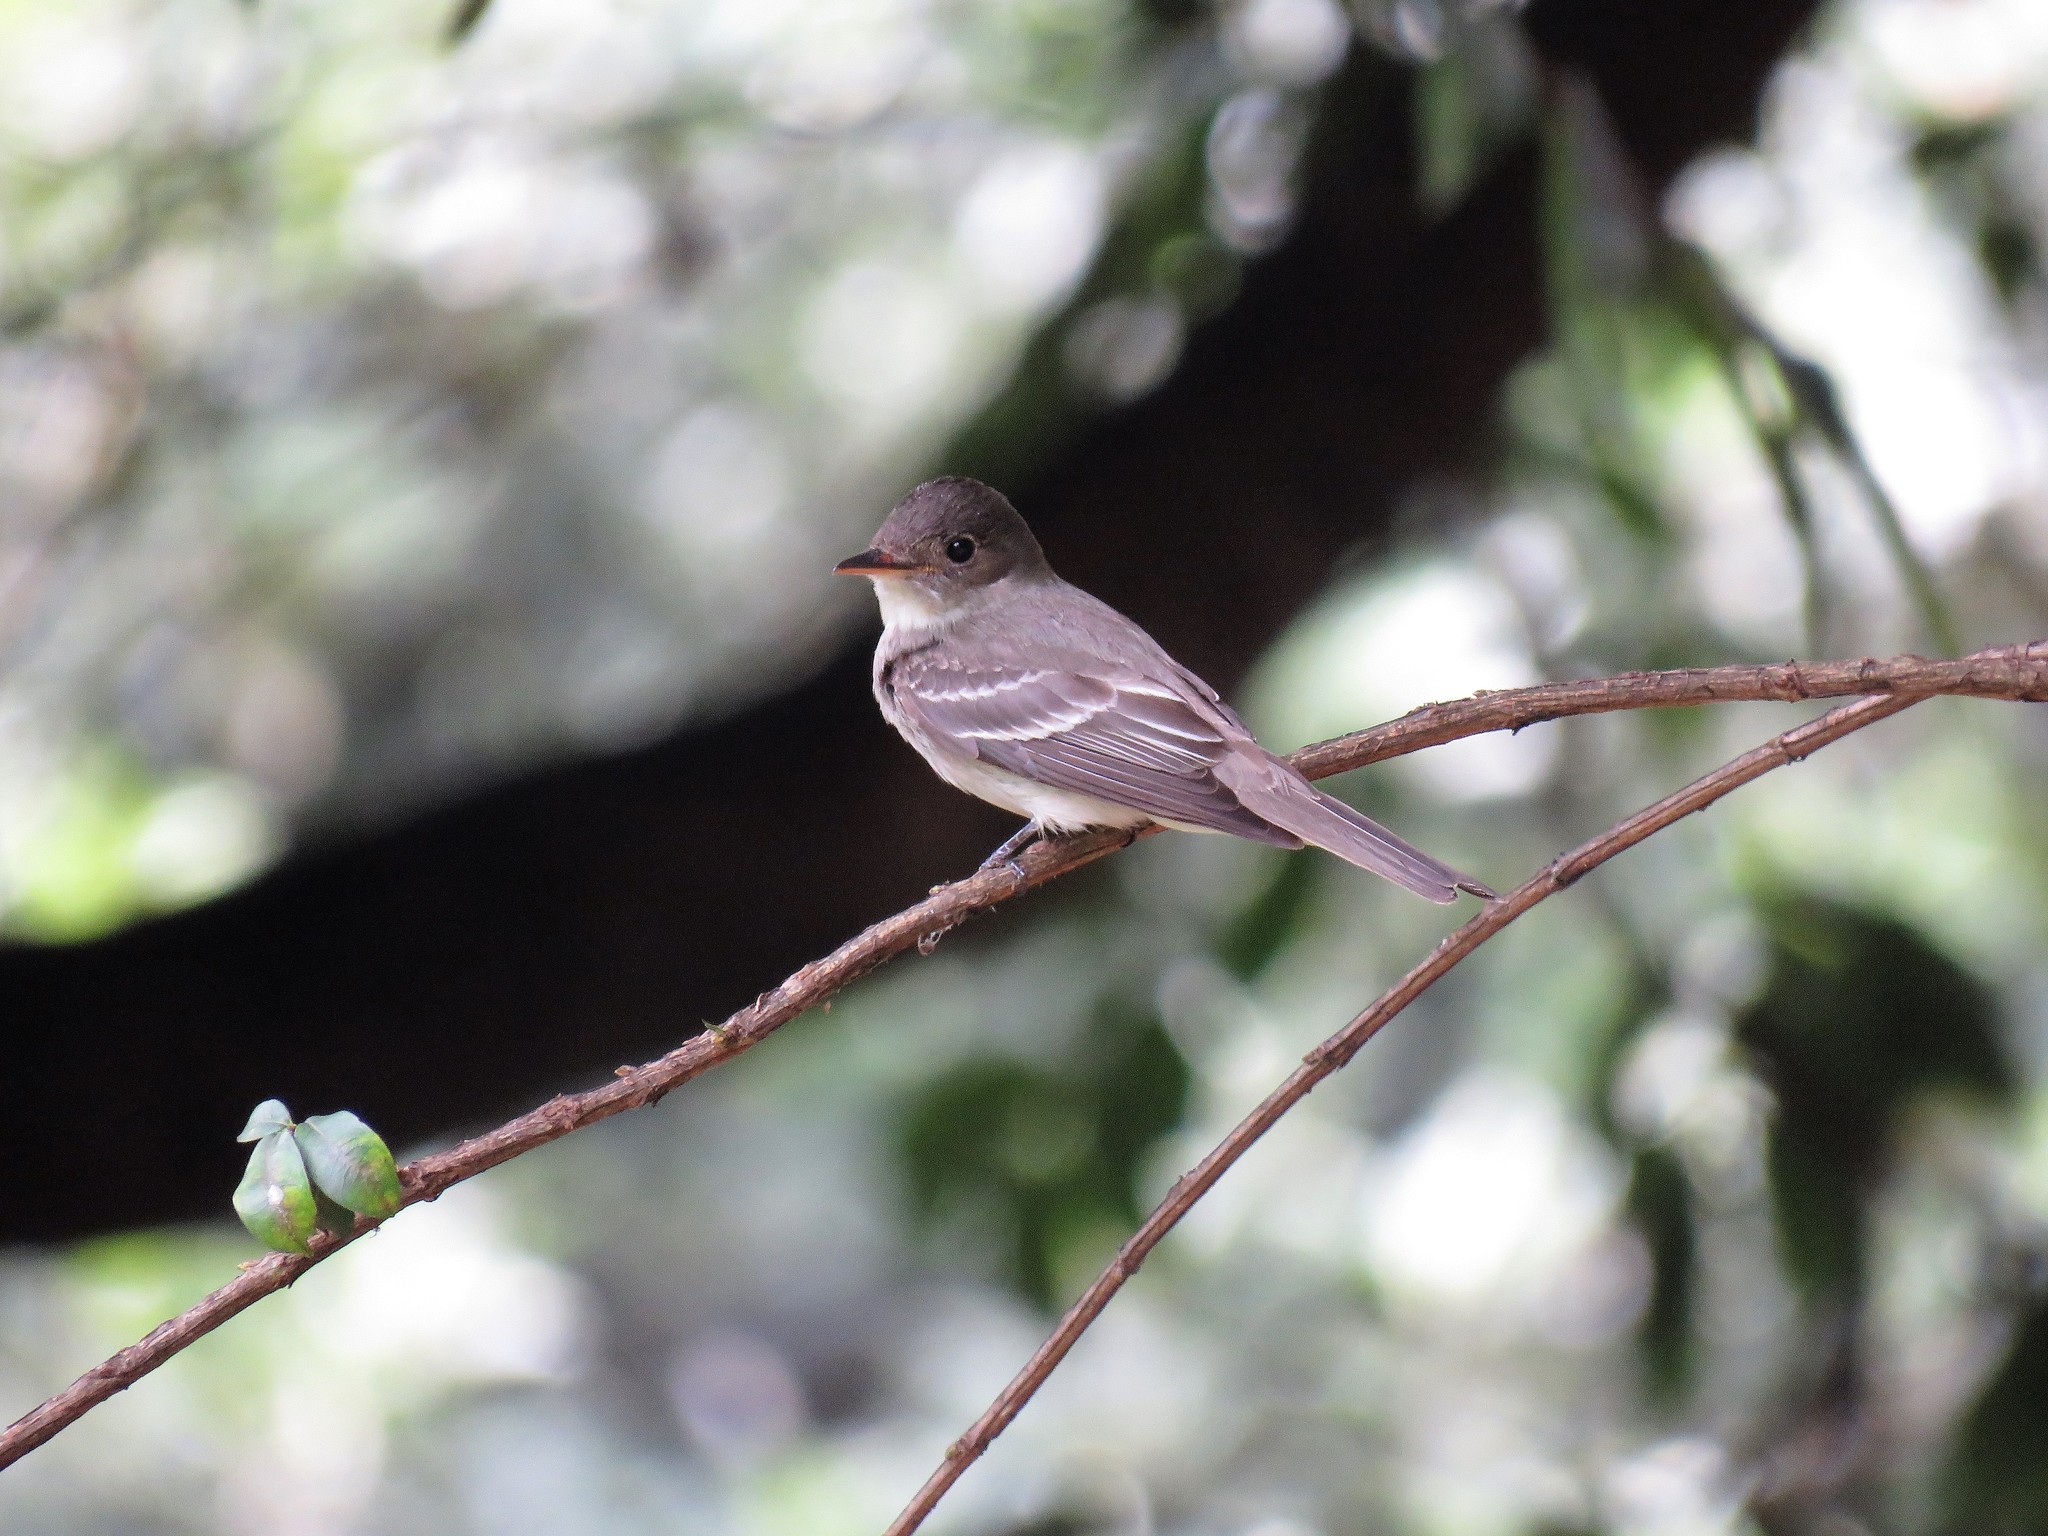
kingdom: Animalia
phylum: Chordata
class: Aves
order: Passeriformes
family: Tyrannidae
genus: Contopus
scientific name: Contopus virens
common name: Eastern wood-pewee
